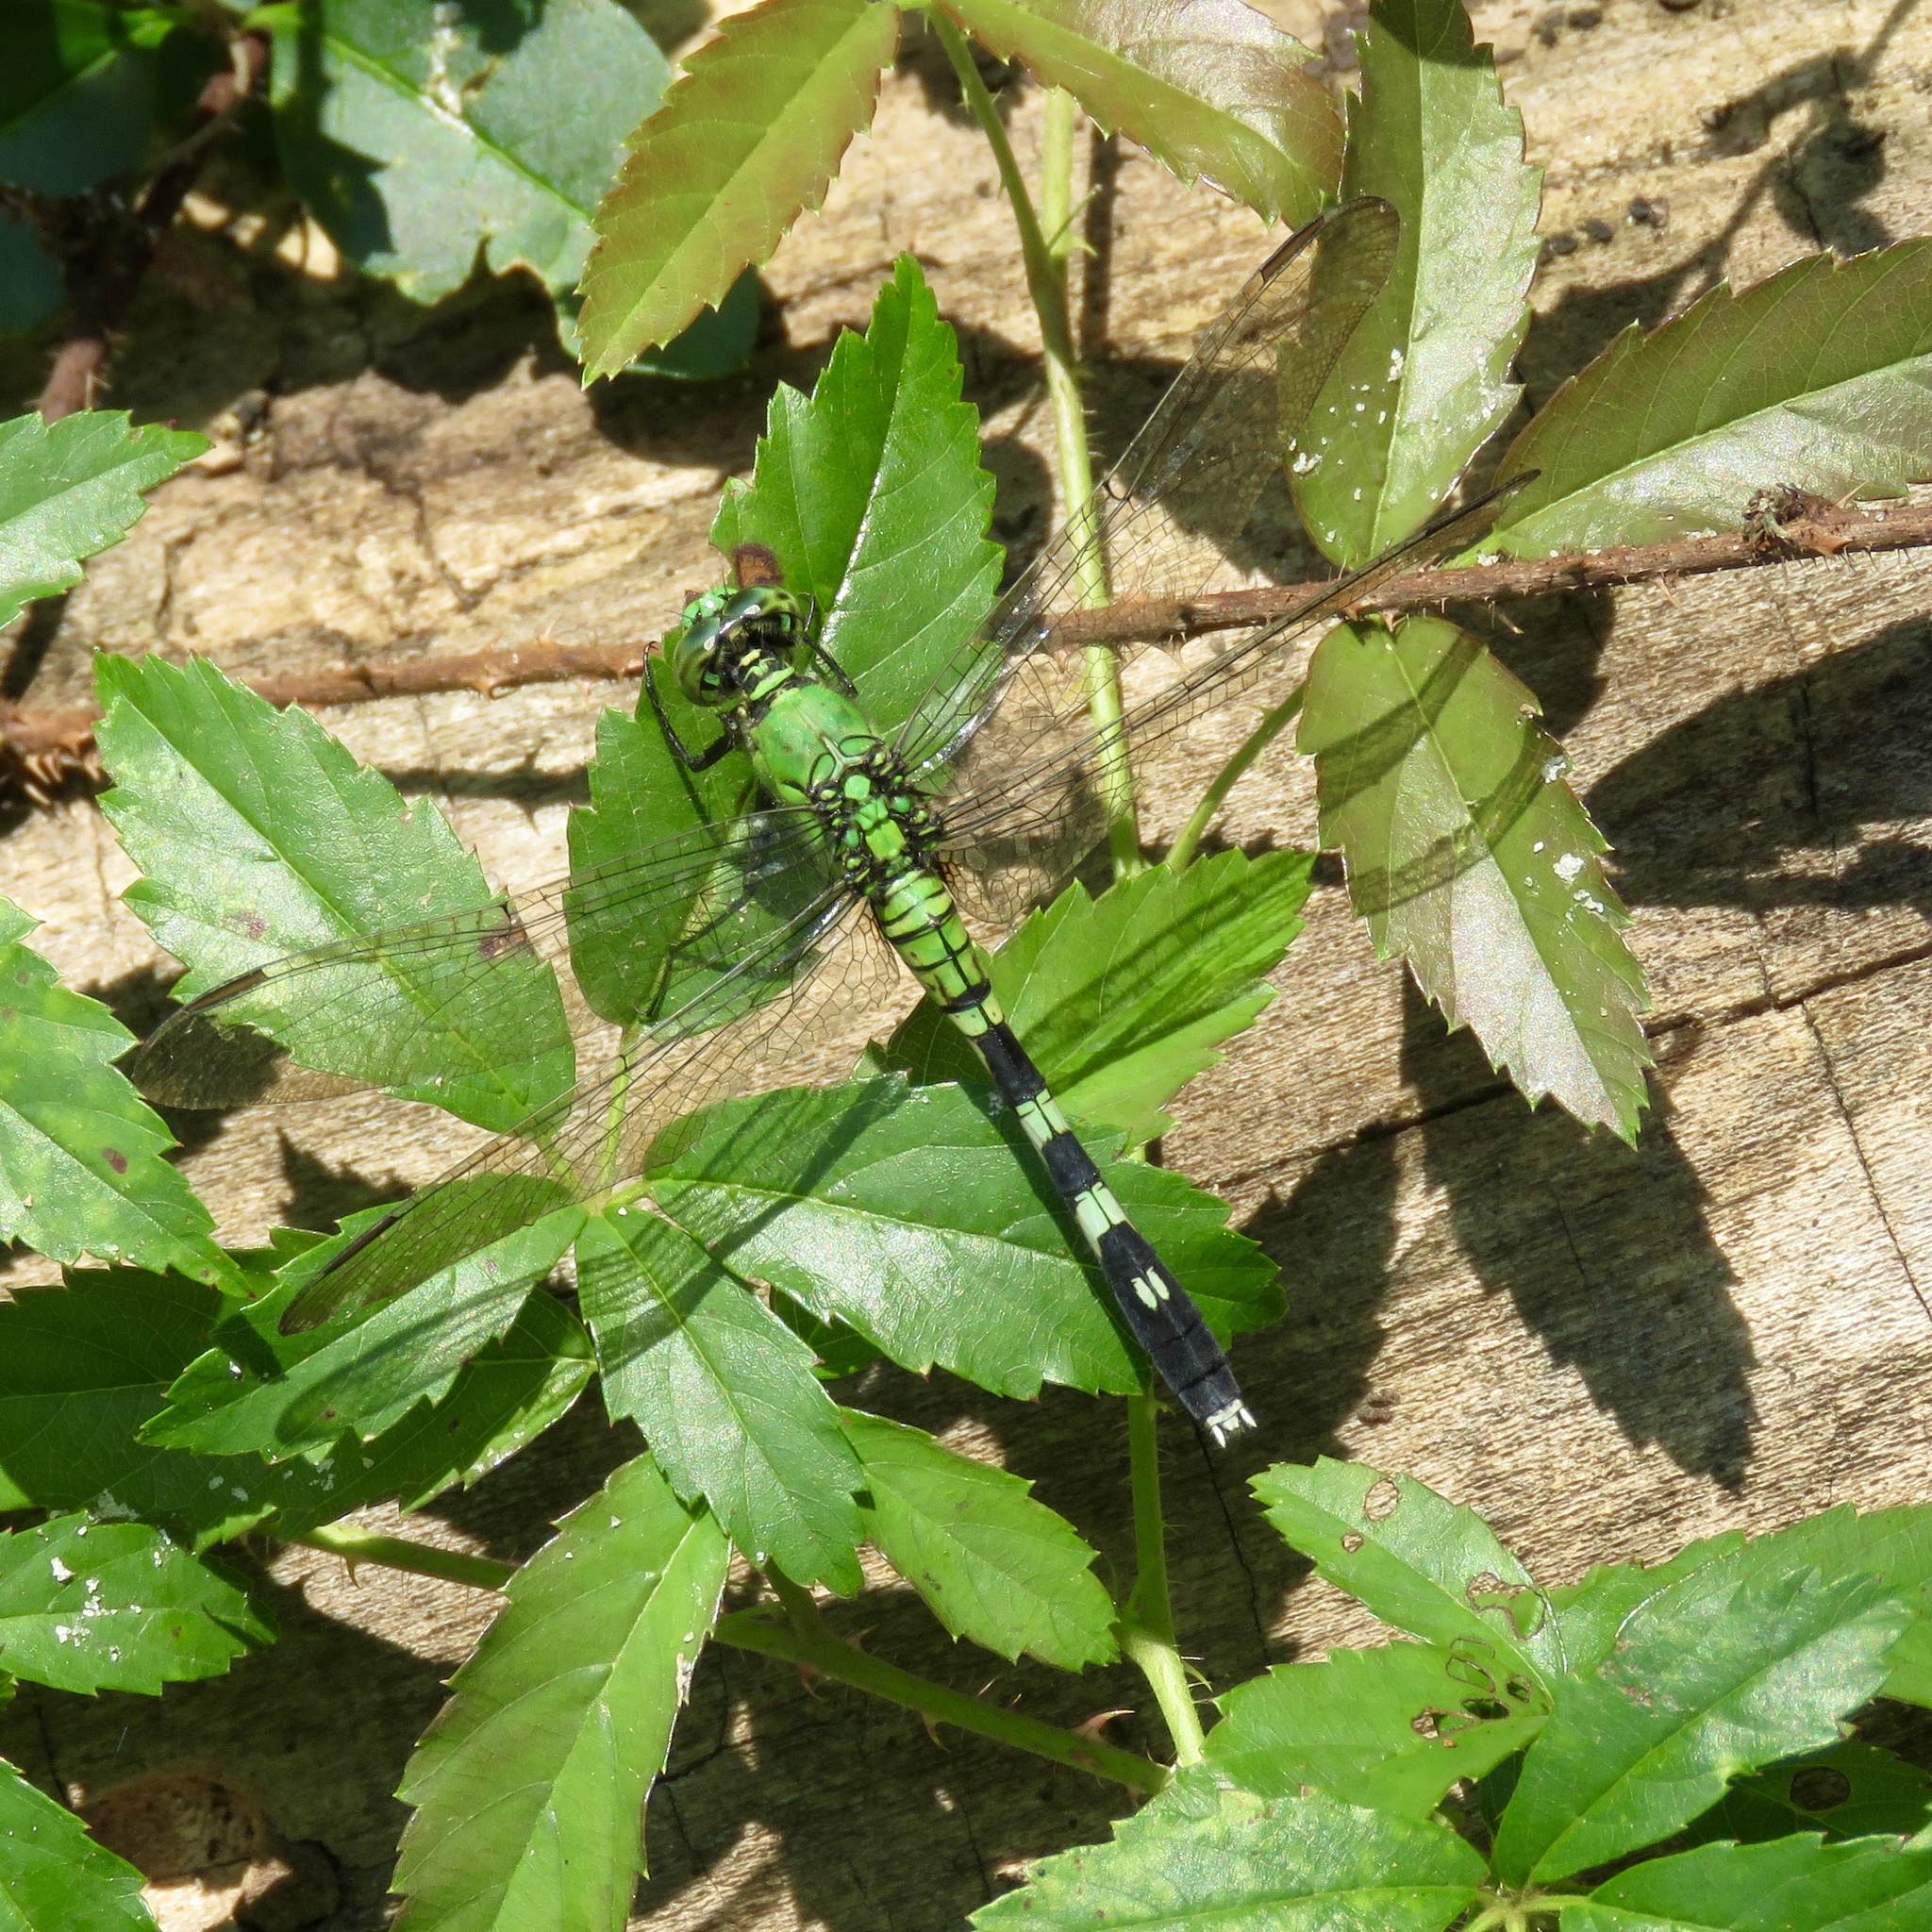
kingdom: Animalia
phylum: Arthropoda
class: Insecta
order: Odonata
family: Libellulidae
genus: Erythemis
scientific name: Erythemis simplicicollis
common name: Eastern pondhawk
